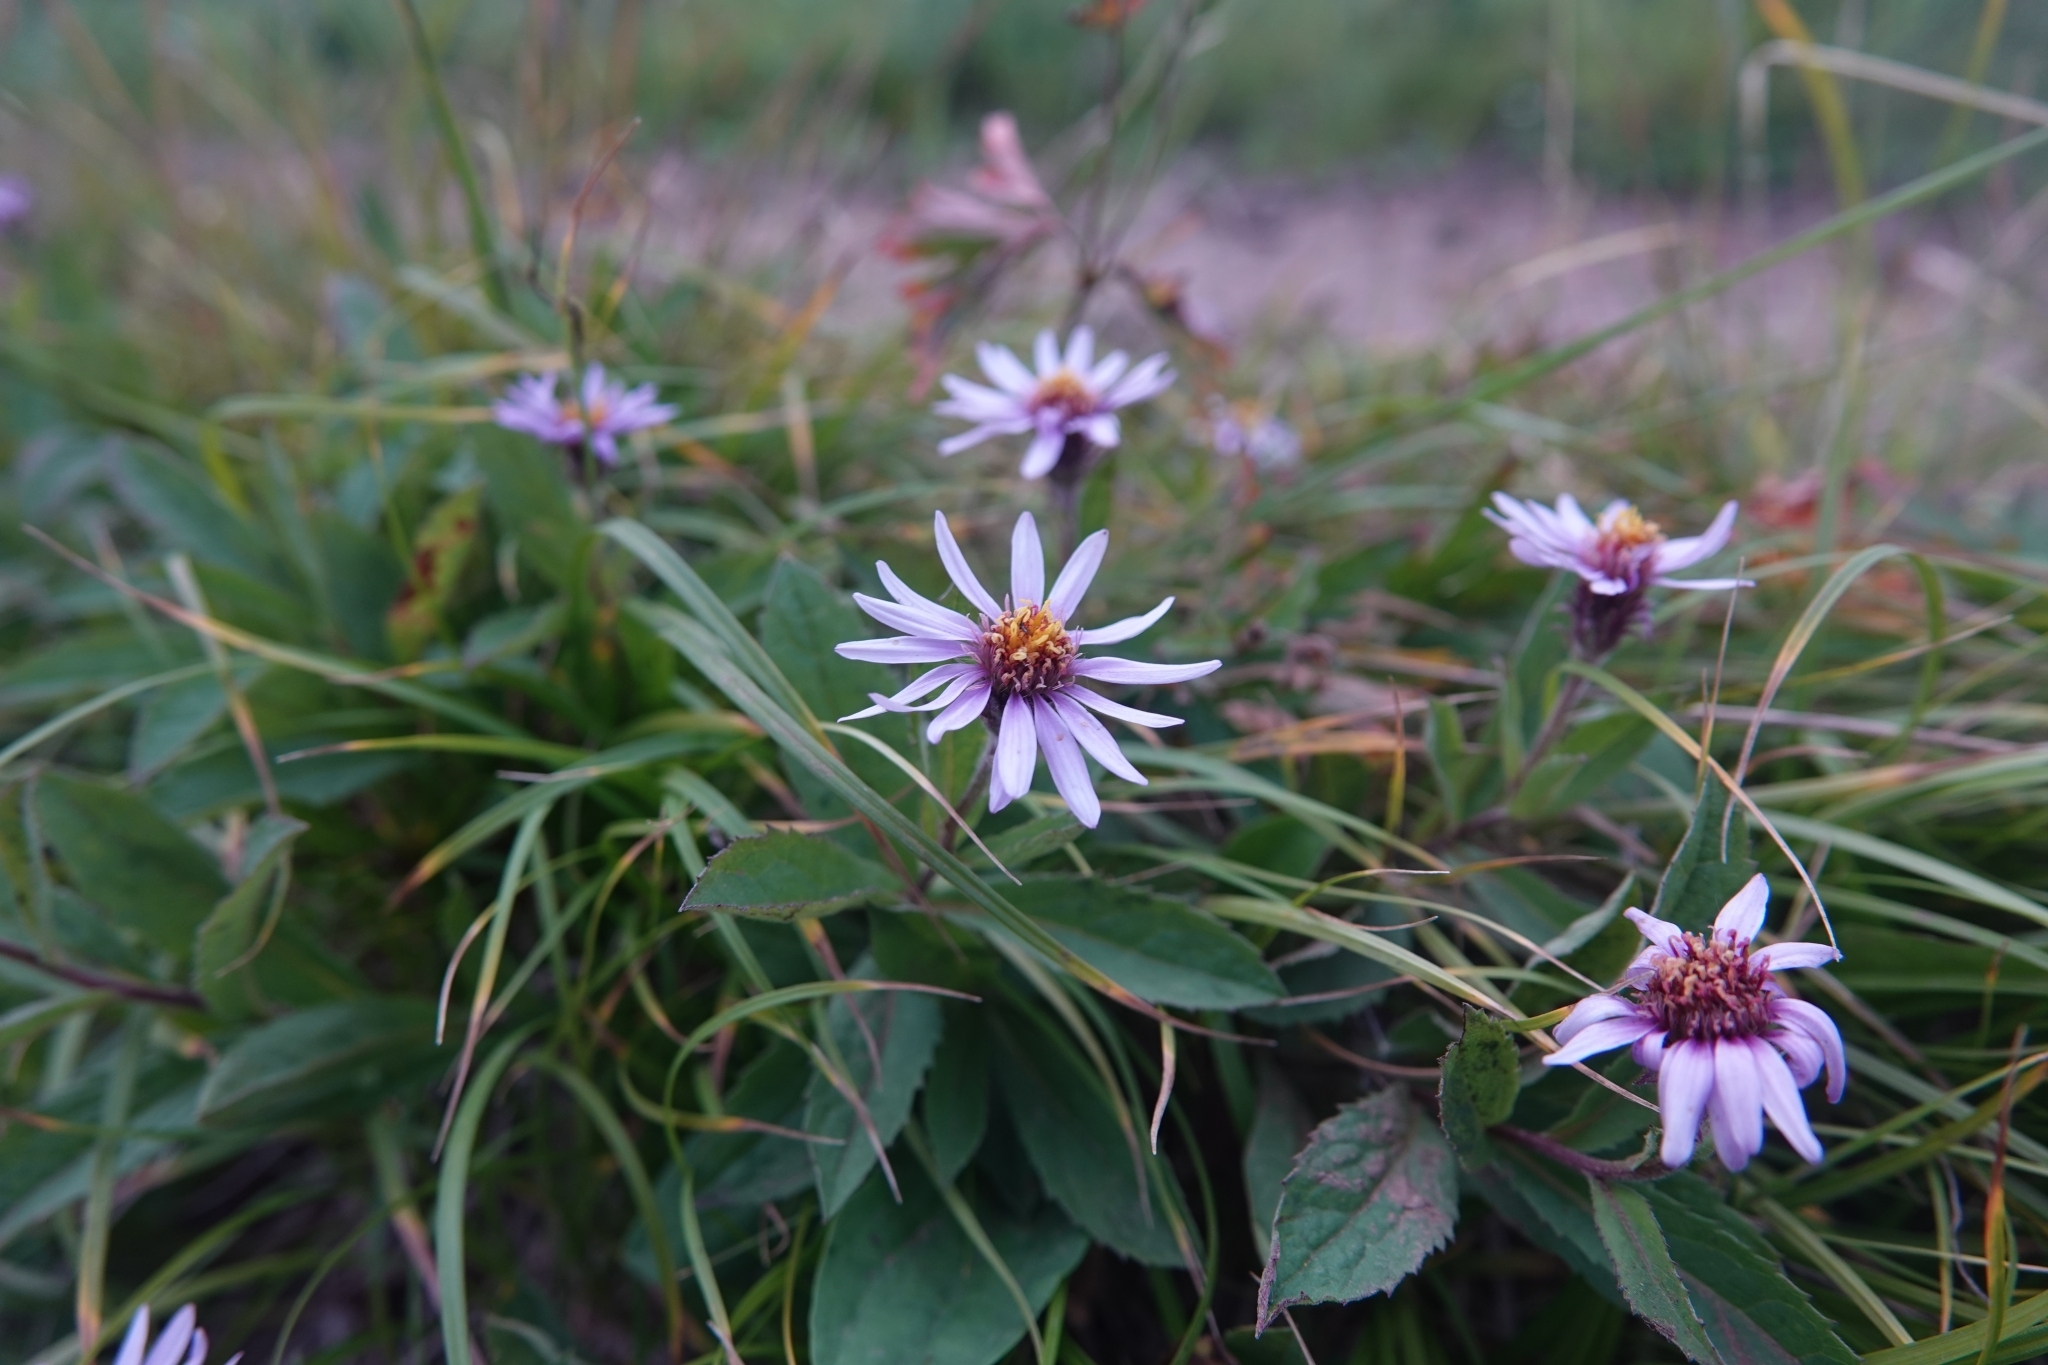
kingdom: Plantae
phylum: Tracheophyta
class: Magnoliopsida
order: Asterales
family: Asteraceae
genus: Eurybia
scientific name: Eurybia sibirica
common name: Arctic aster
